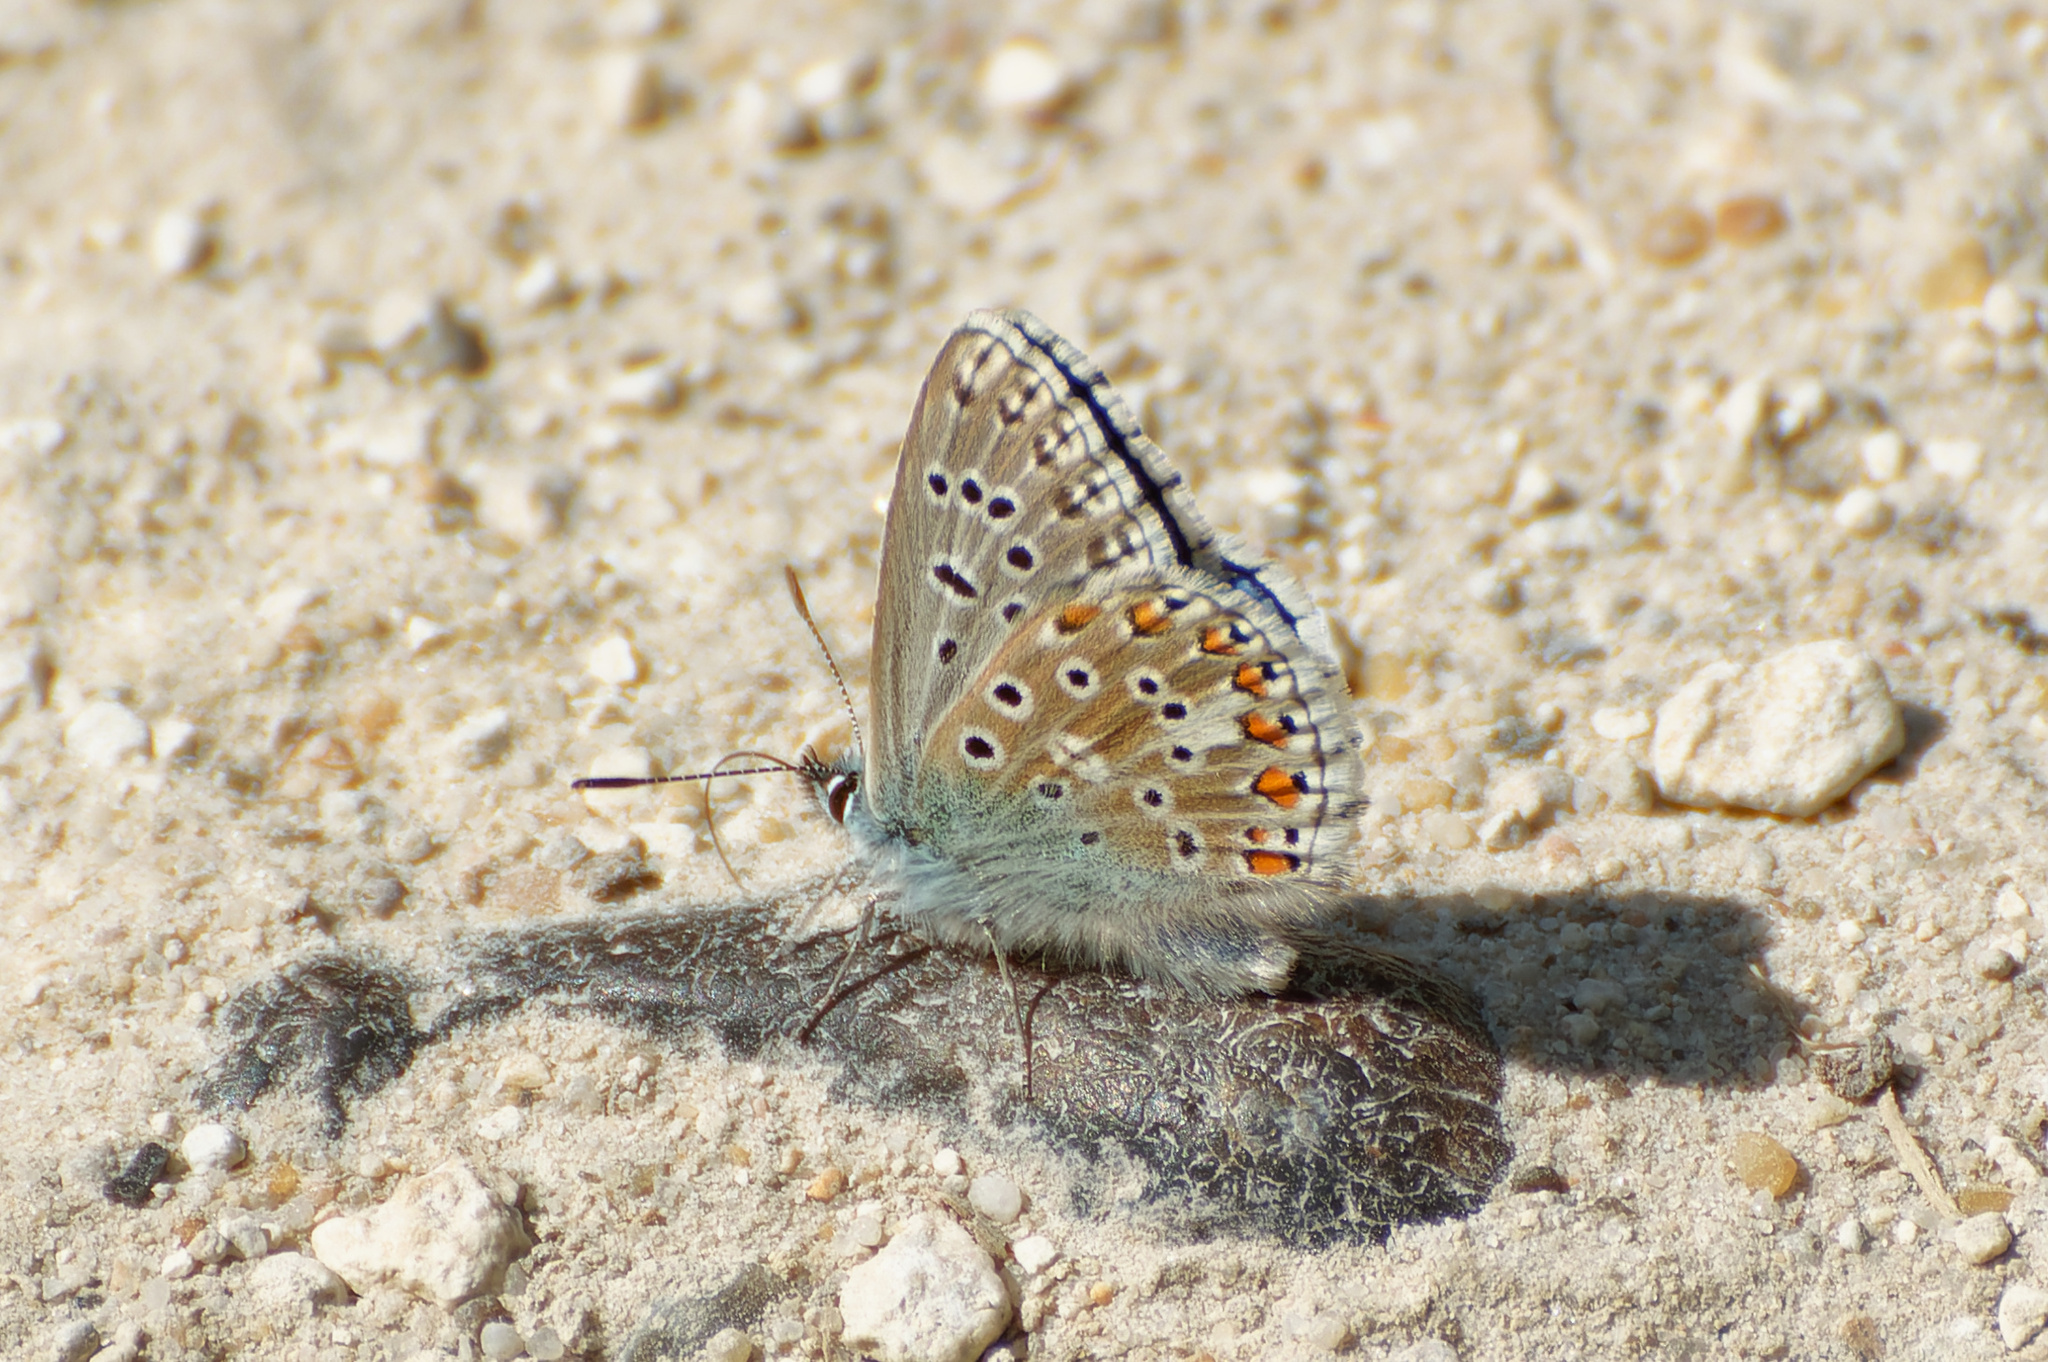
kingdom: Animalia
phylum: Arthropoda
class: Insecta
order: Lepidoptera
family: Lycaenidae
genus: Lysandra
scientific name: Lysandra bellargus
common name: Adonis blue
